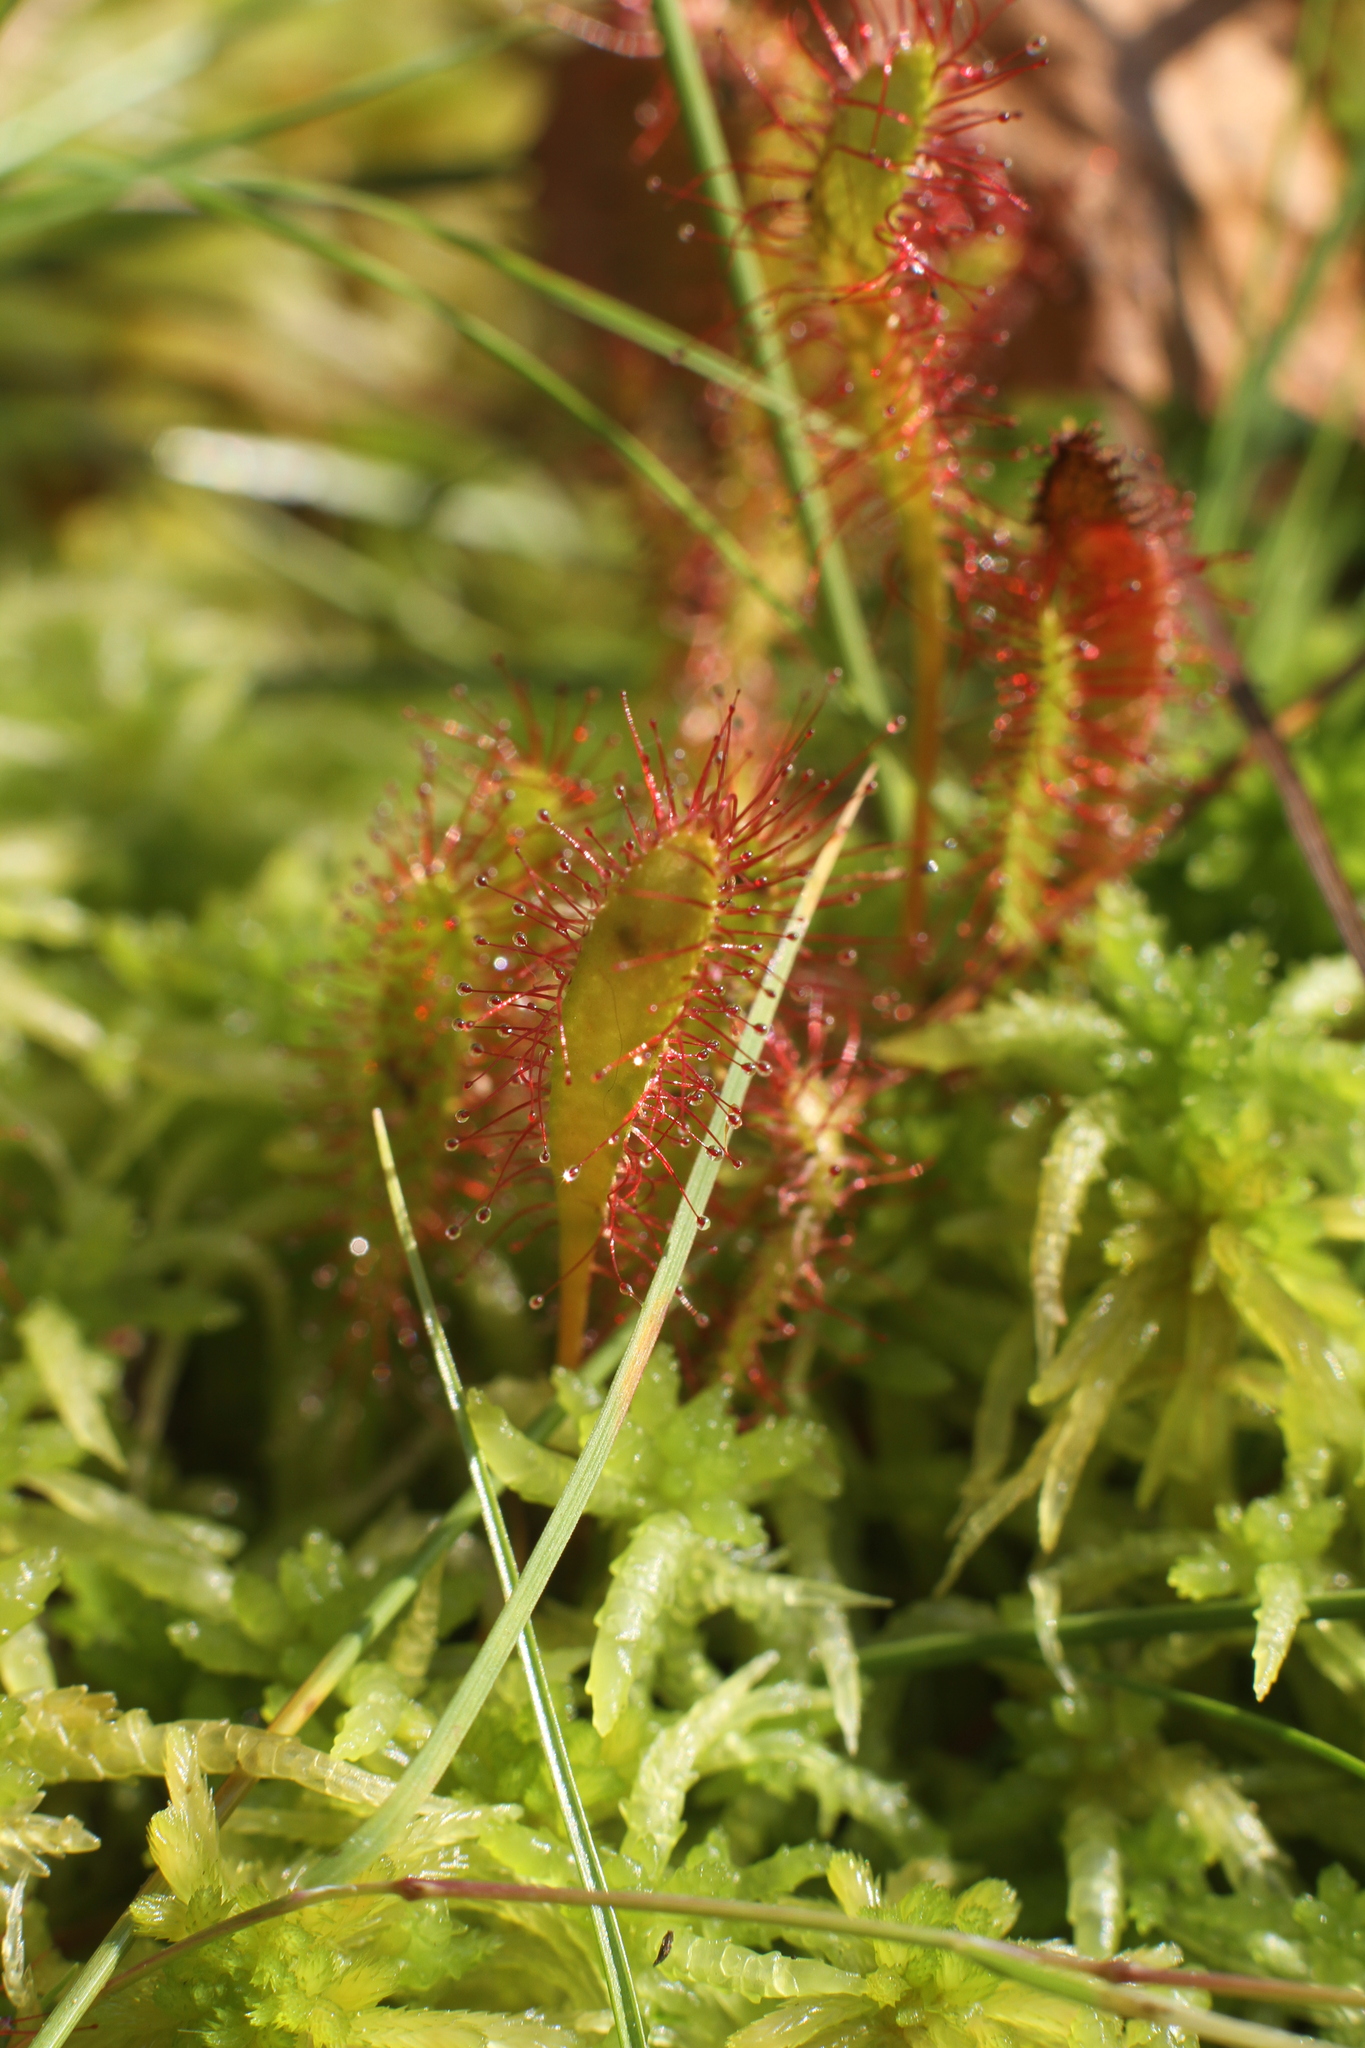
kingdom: Plantae
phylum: Tracheophyta
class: Magnoliopsida
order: Caryophyllales
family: Droseraceae
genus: Drosera
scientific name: Drosera anglica
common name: Great sundew
